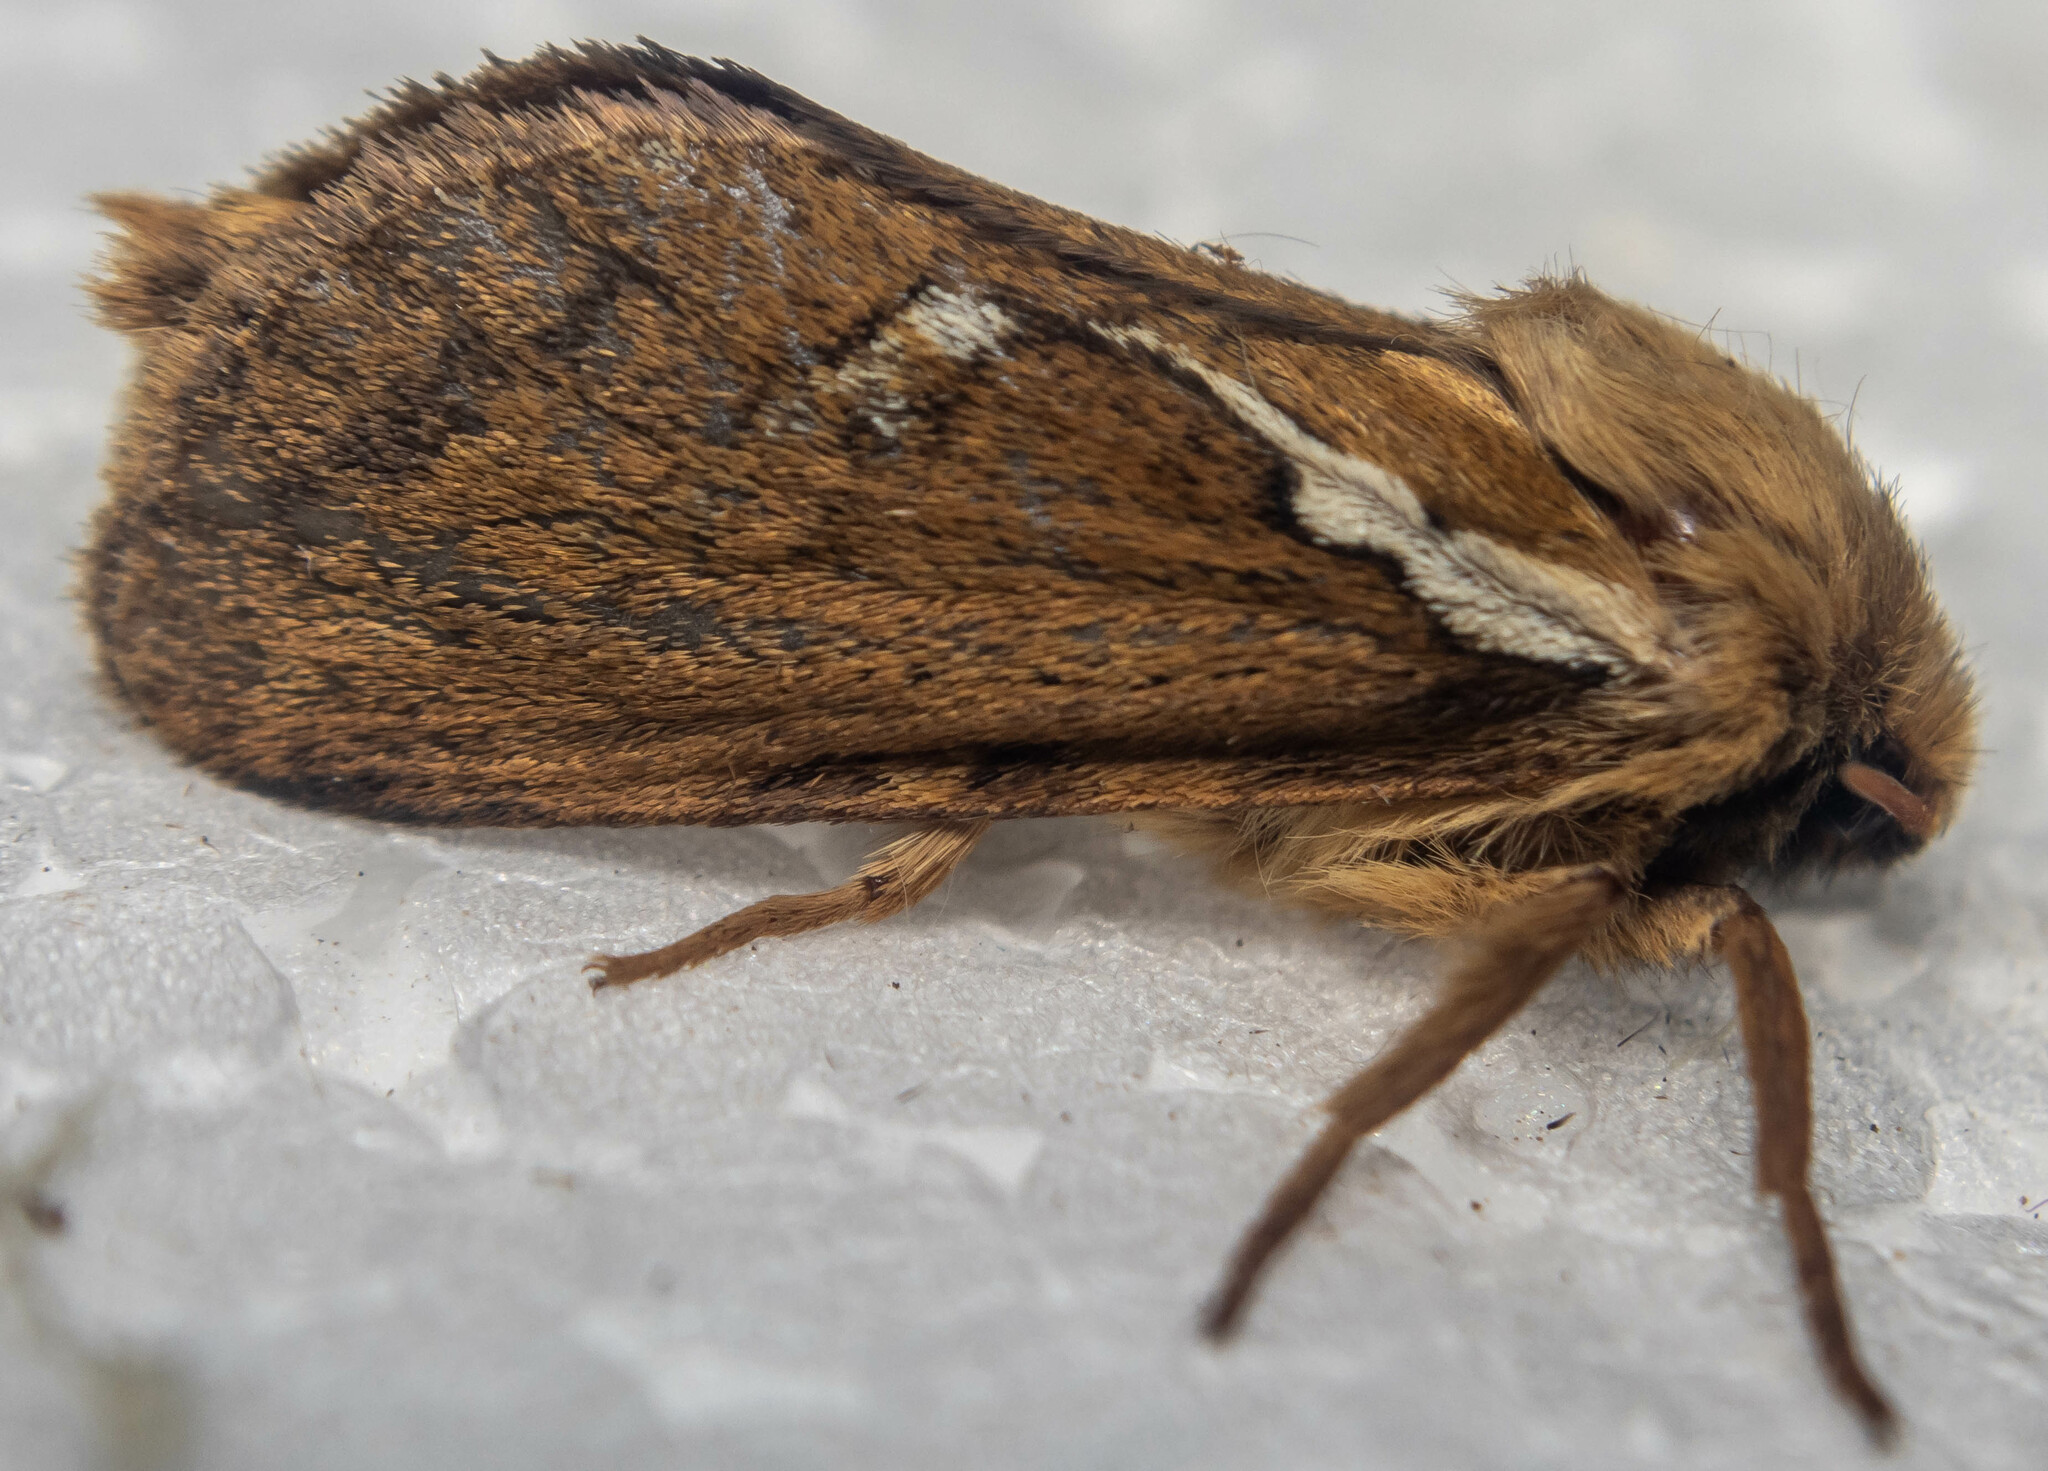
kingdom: Animalia
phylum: Arthropoda
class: Insecta
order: Lepidoptera
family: Hepialidae
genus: Korscheltellus
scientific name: Korscheltellus lupulina
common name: Common swift
